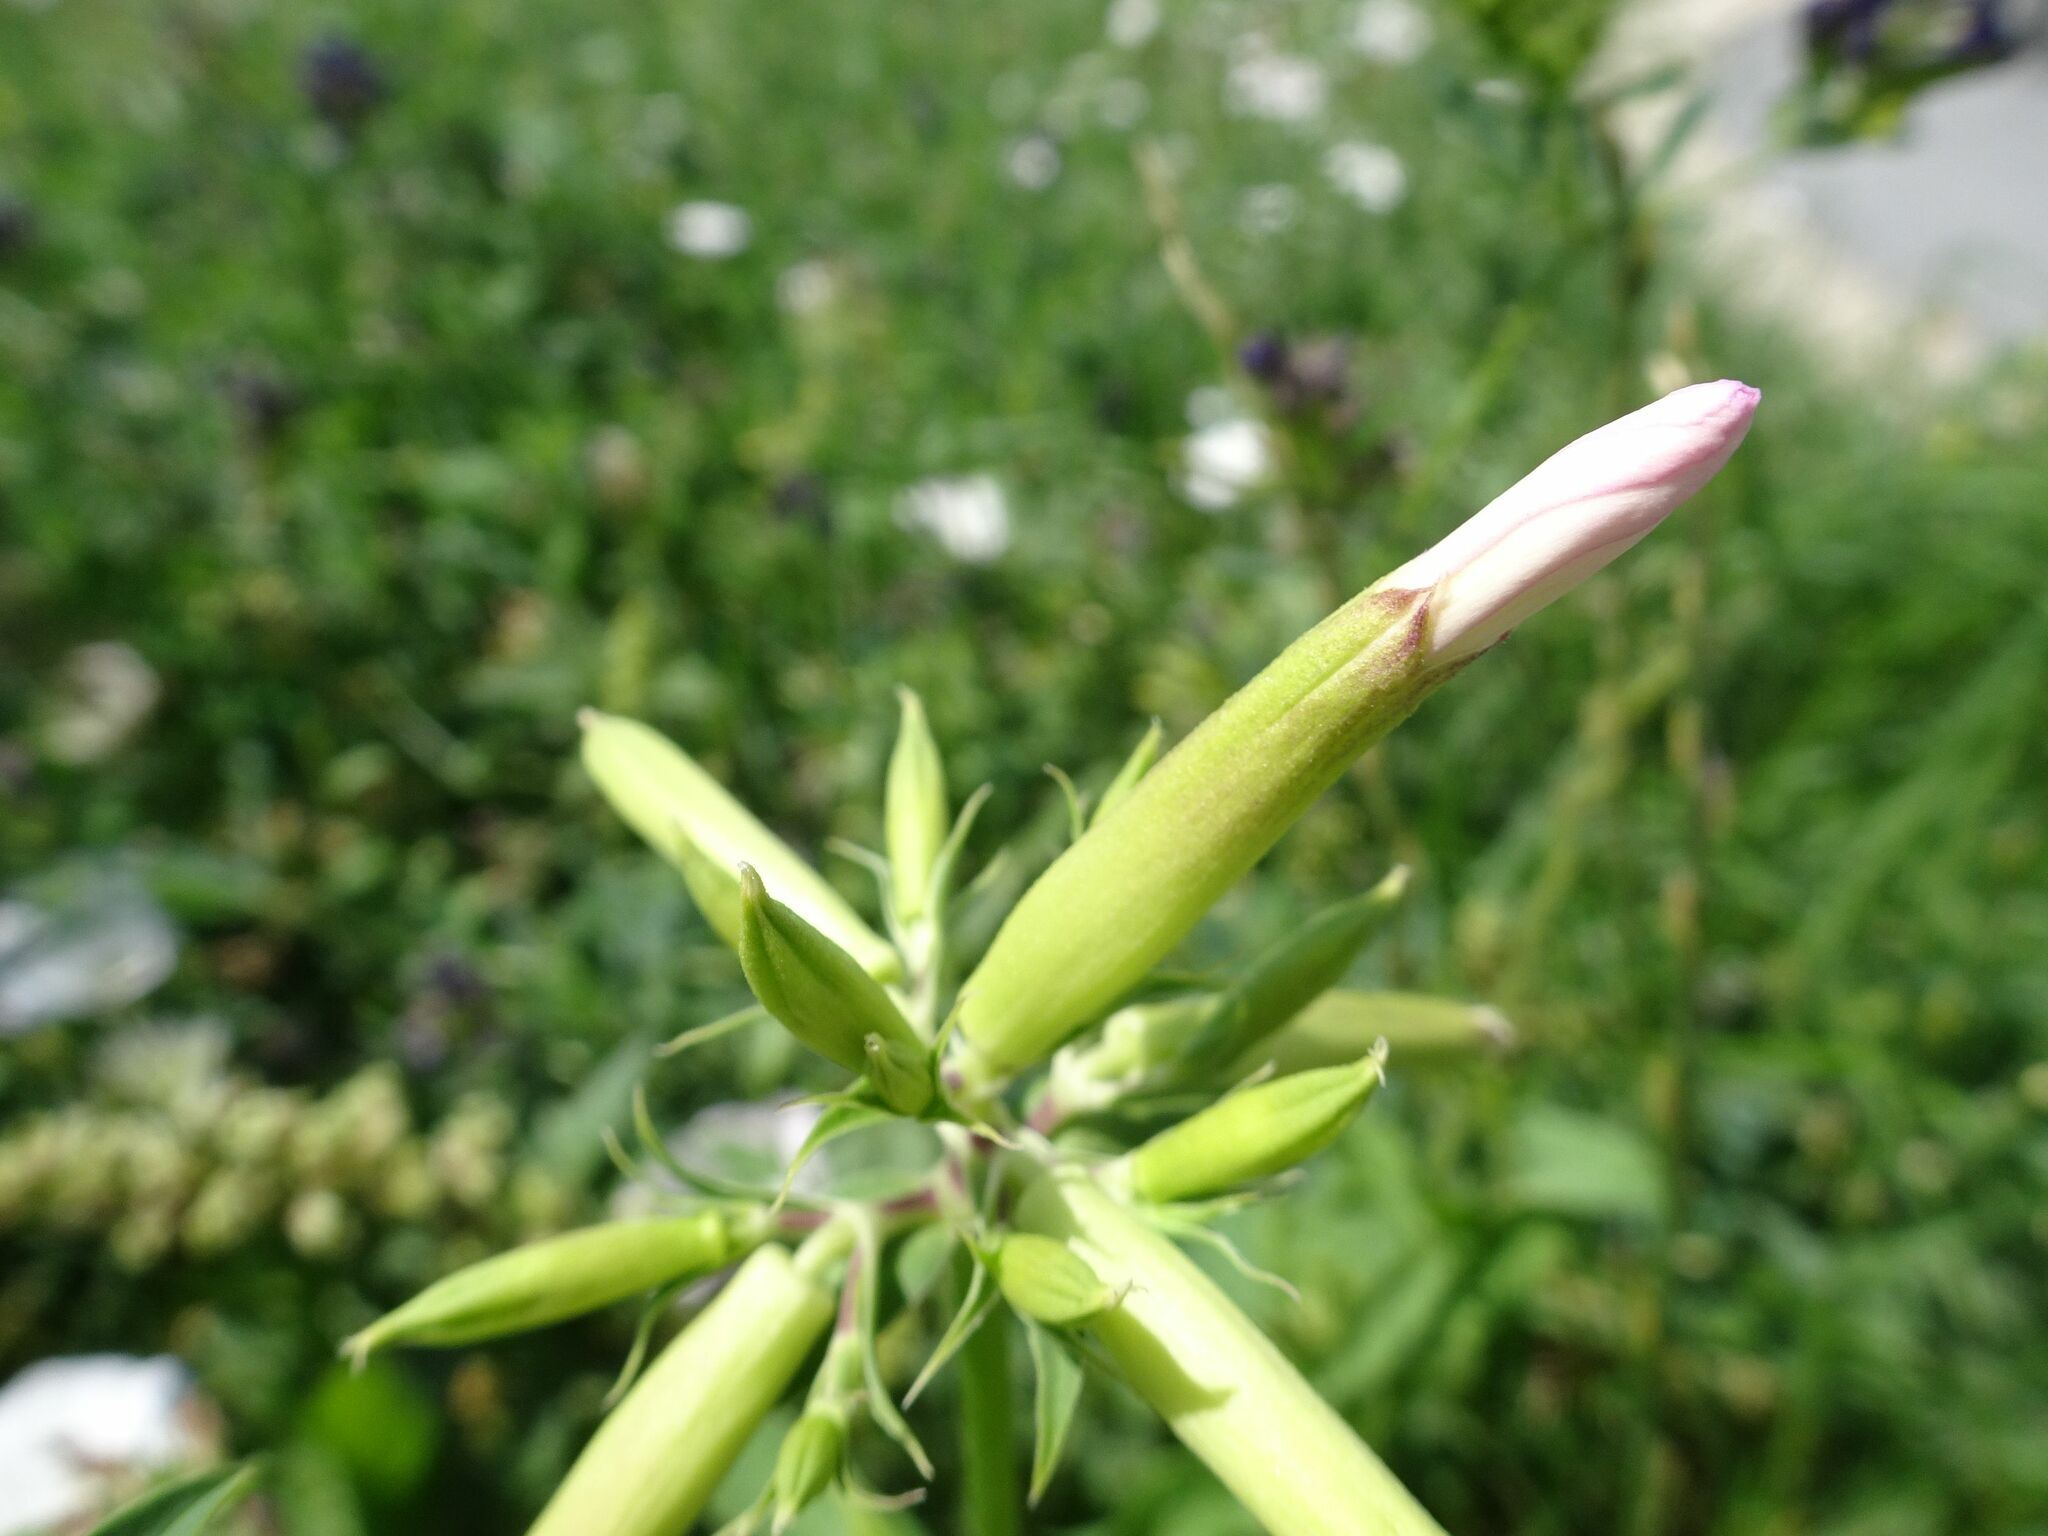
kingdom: Plantae
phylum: Tracheophyta
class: Magnoliopsida
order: Caryophyllales
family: Caryophyllaceae
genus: Saponaria
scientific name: Saponaria officinalis
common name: Soapwort
